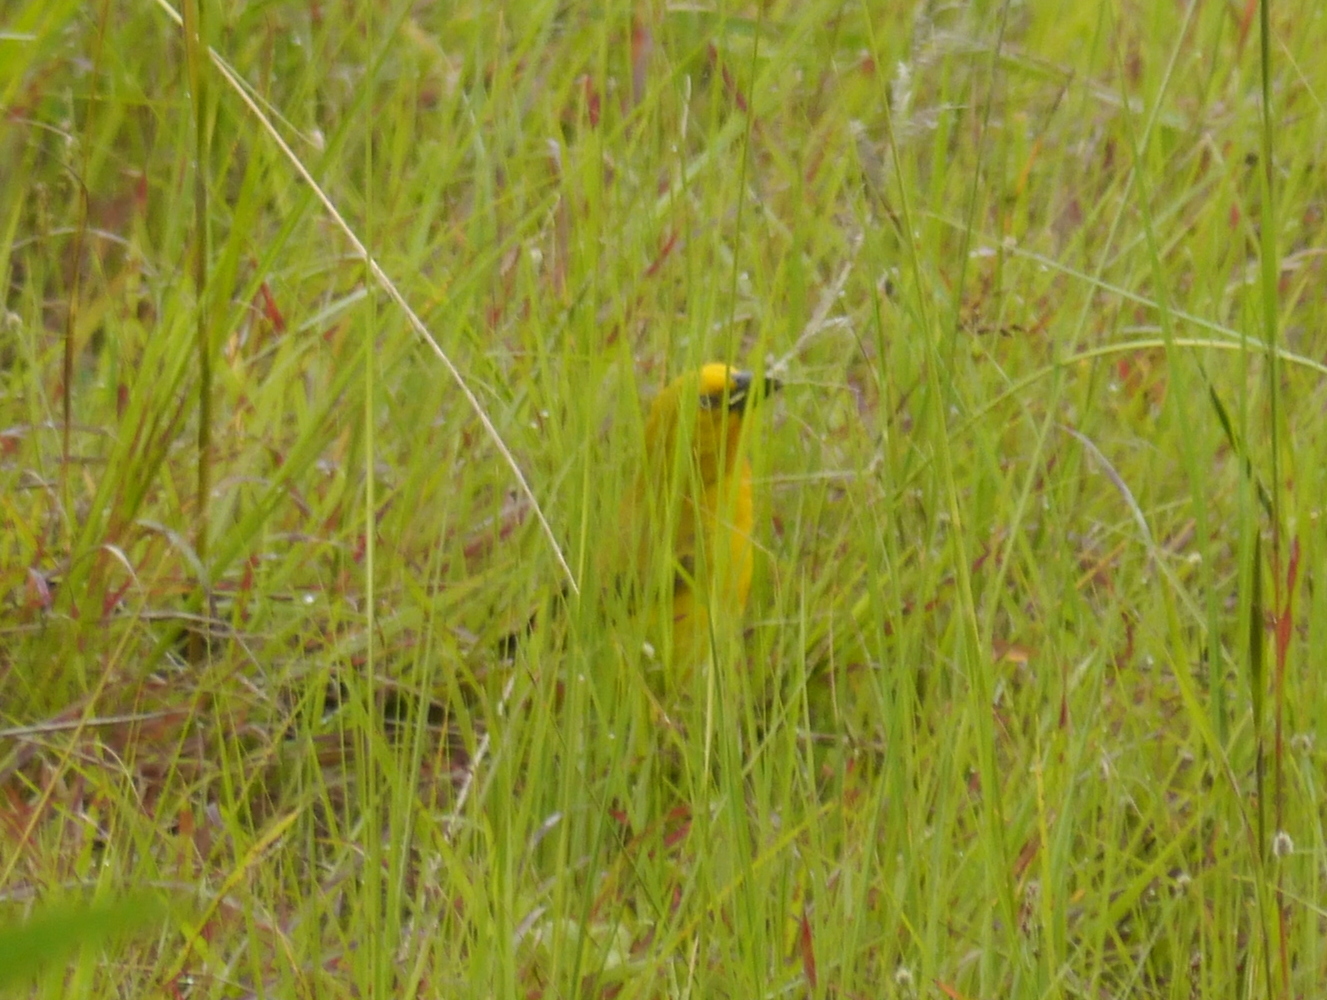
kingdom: Animalia
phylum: Chordata
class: Aves
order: Passeriformes
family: Ploceidae
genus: Ploceus
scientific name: Ploceus xanthops
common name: Holub's golden weaver
